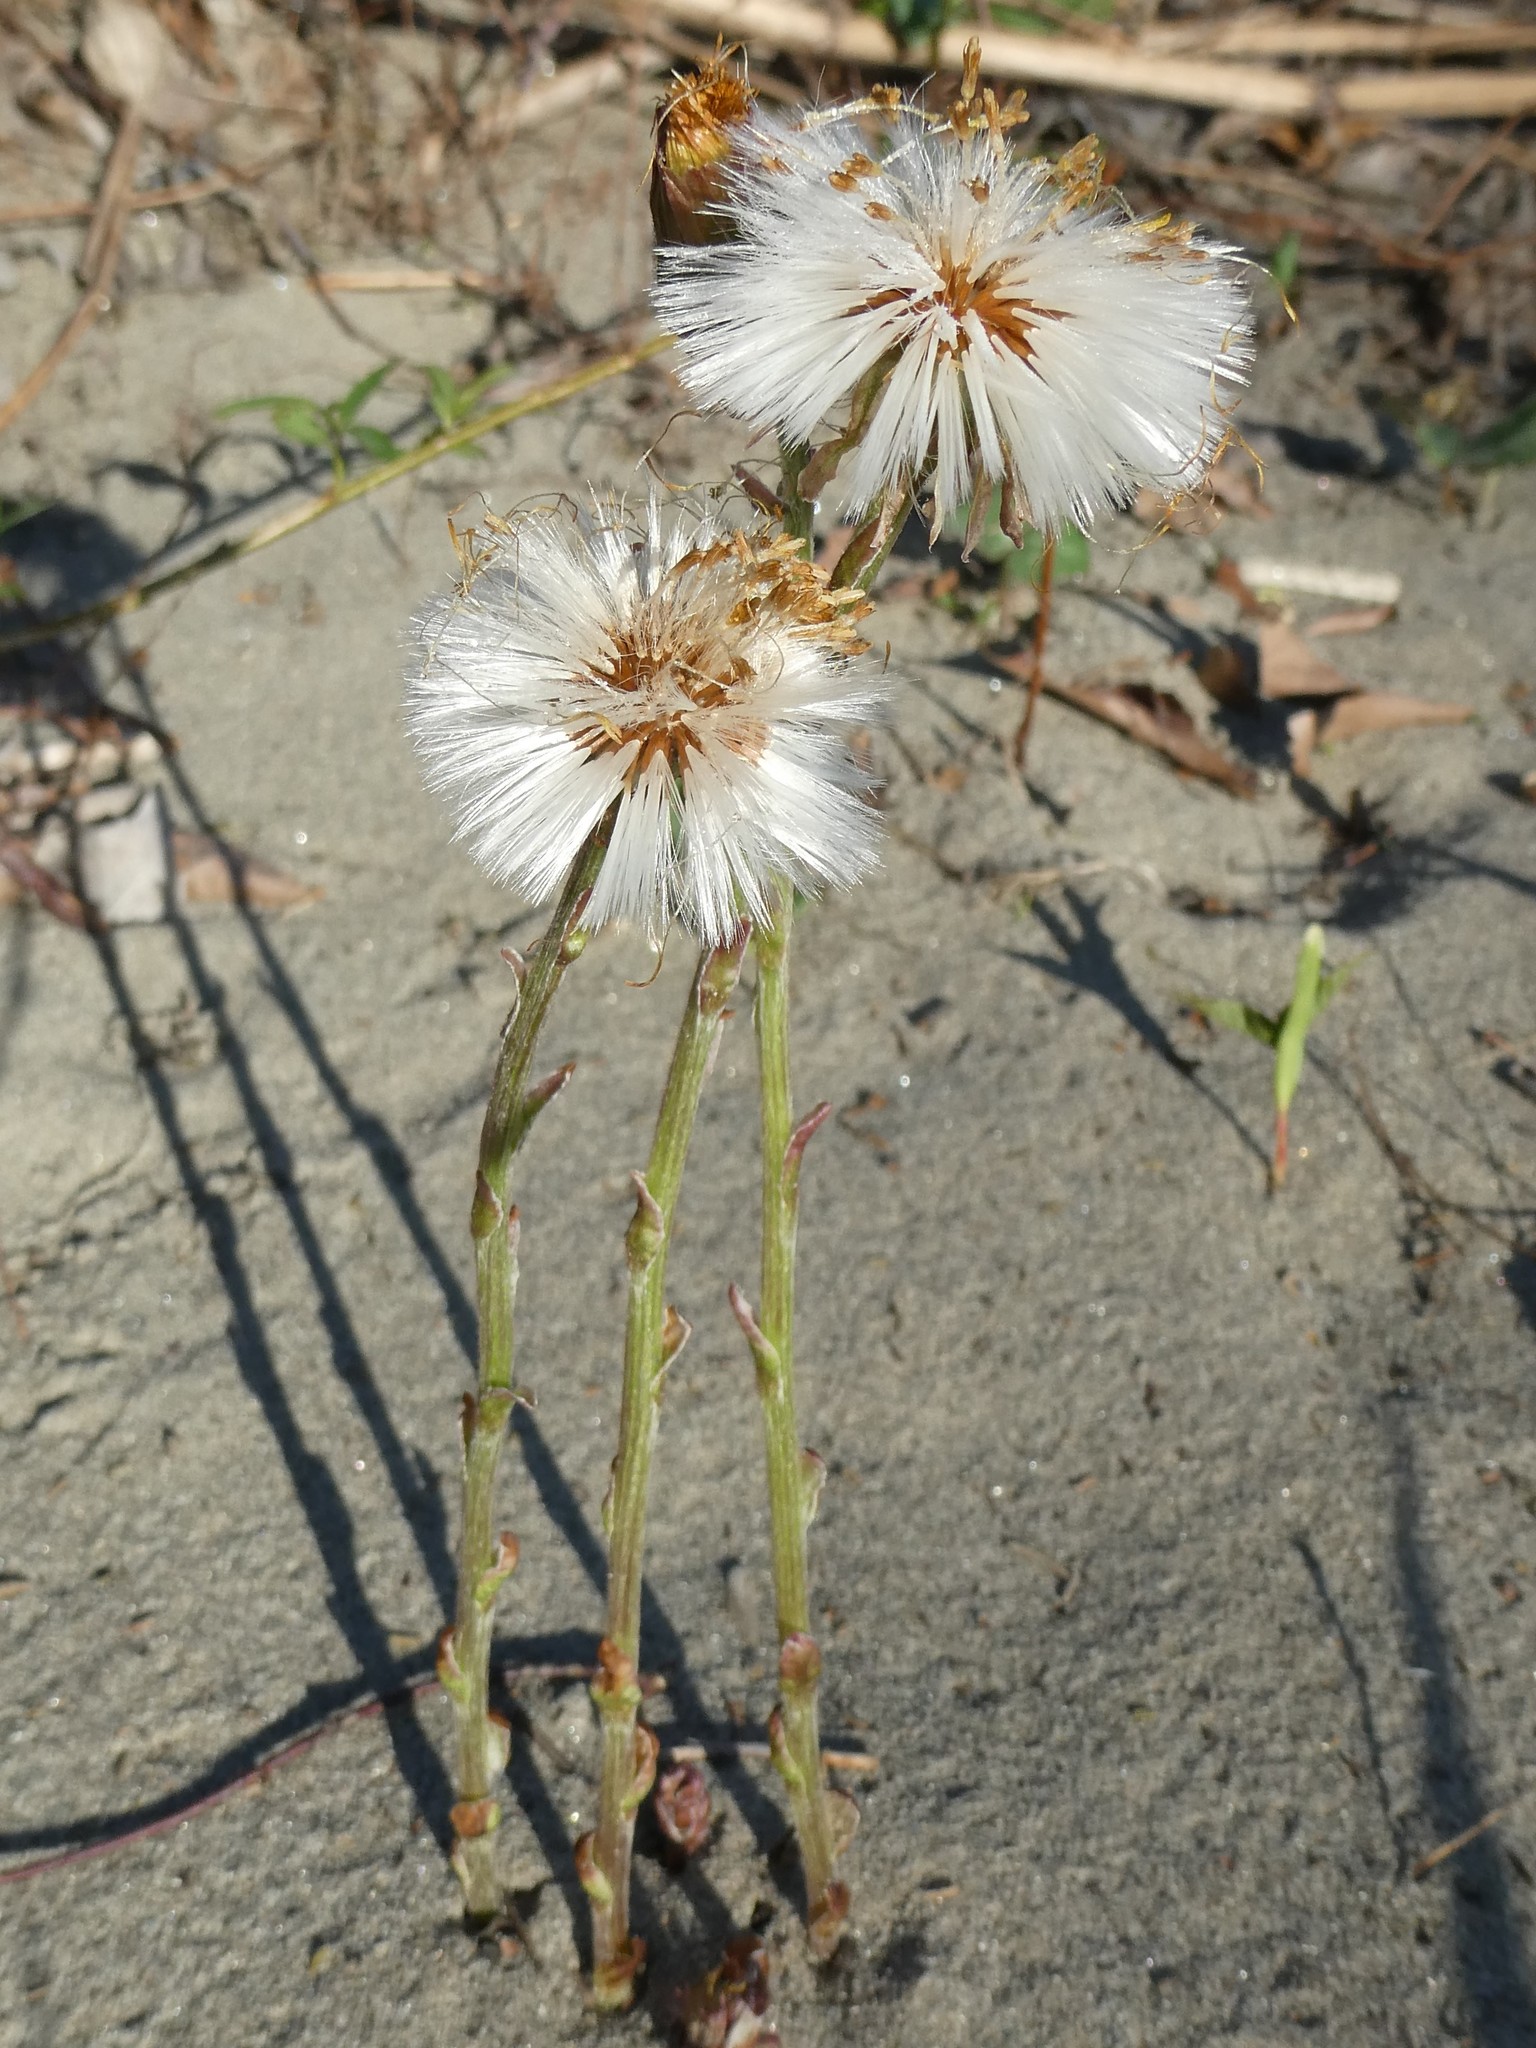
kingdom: Plantae
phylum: Tracheophyta
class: Magnoliopsida
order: Asterales
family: Asteraceae
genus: Tussilago
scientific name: Tussilago farfara
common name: Coltsfoot
